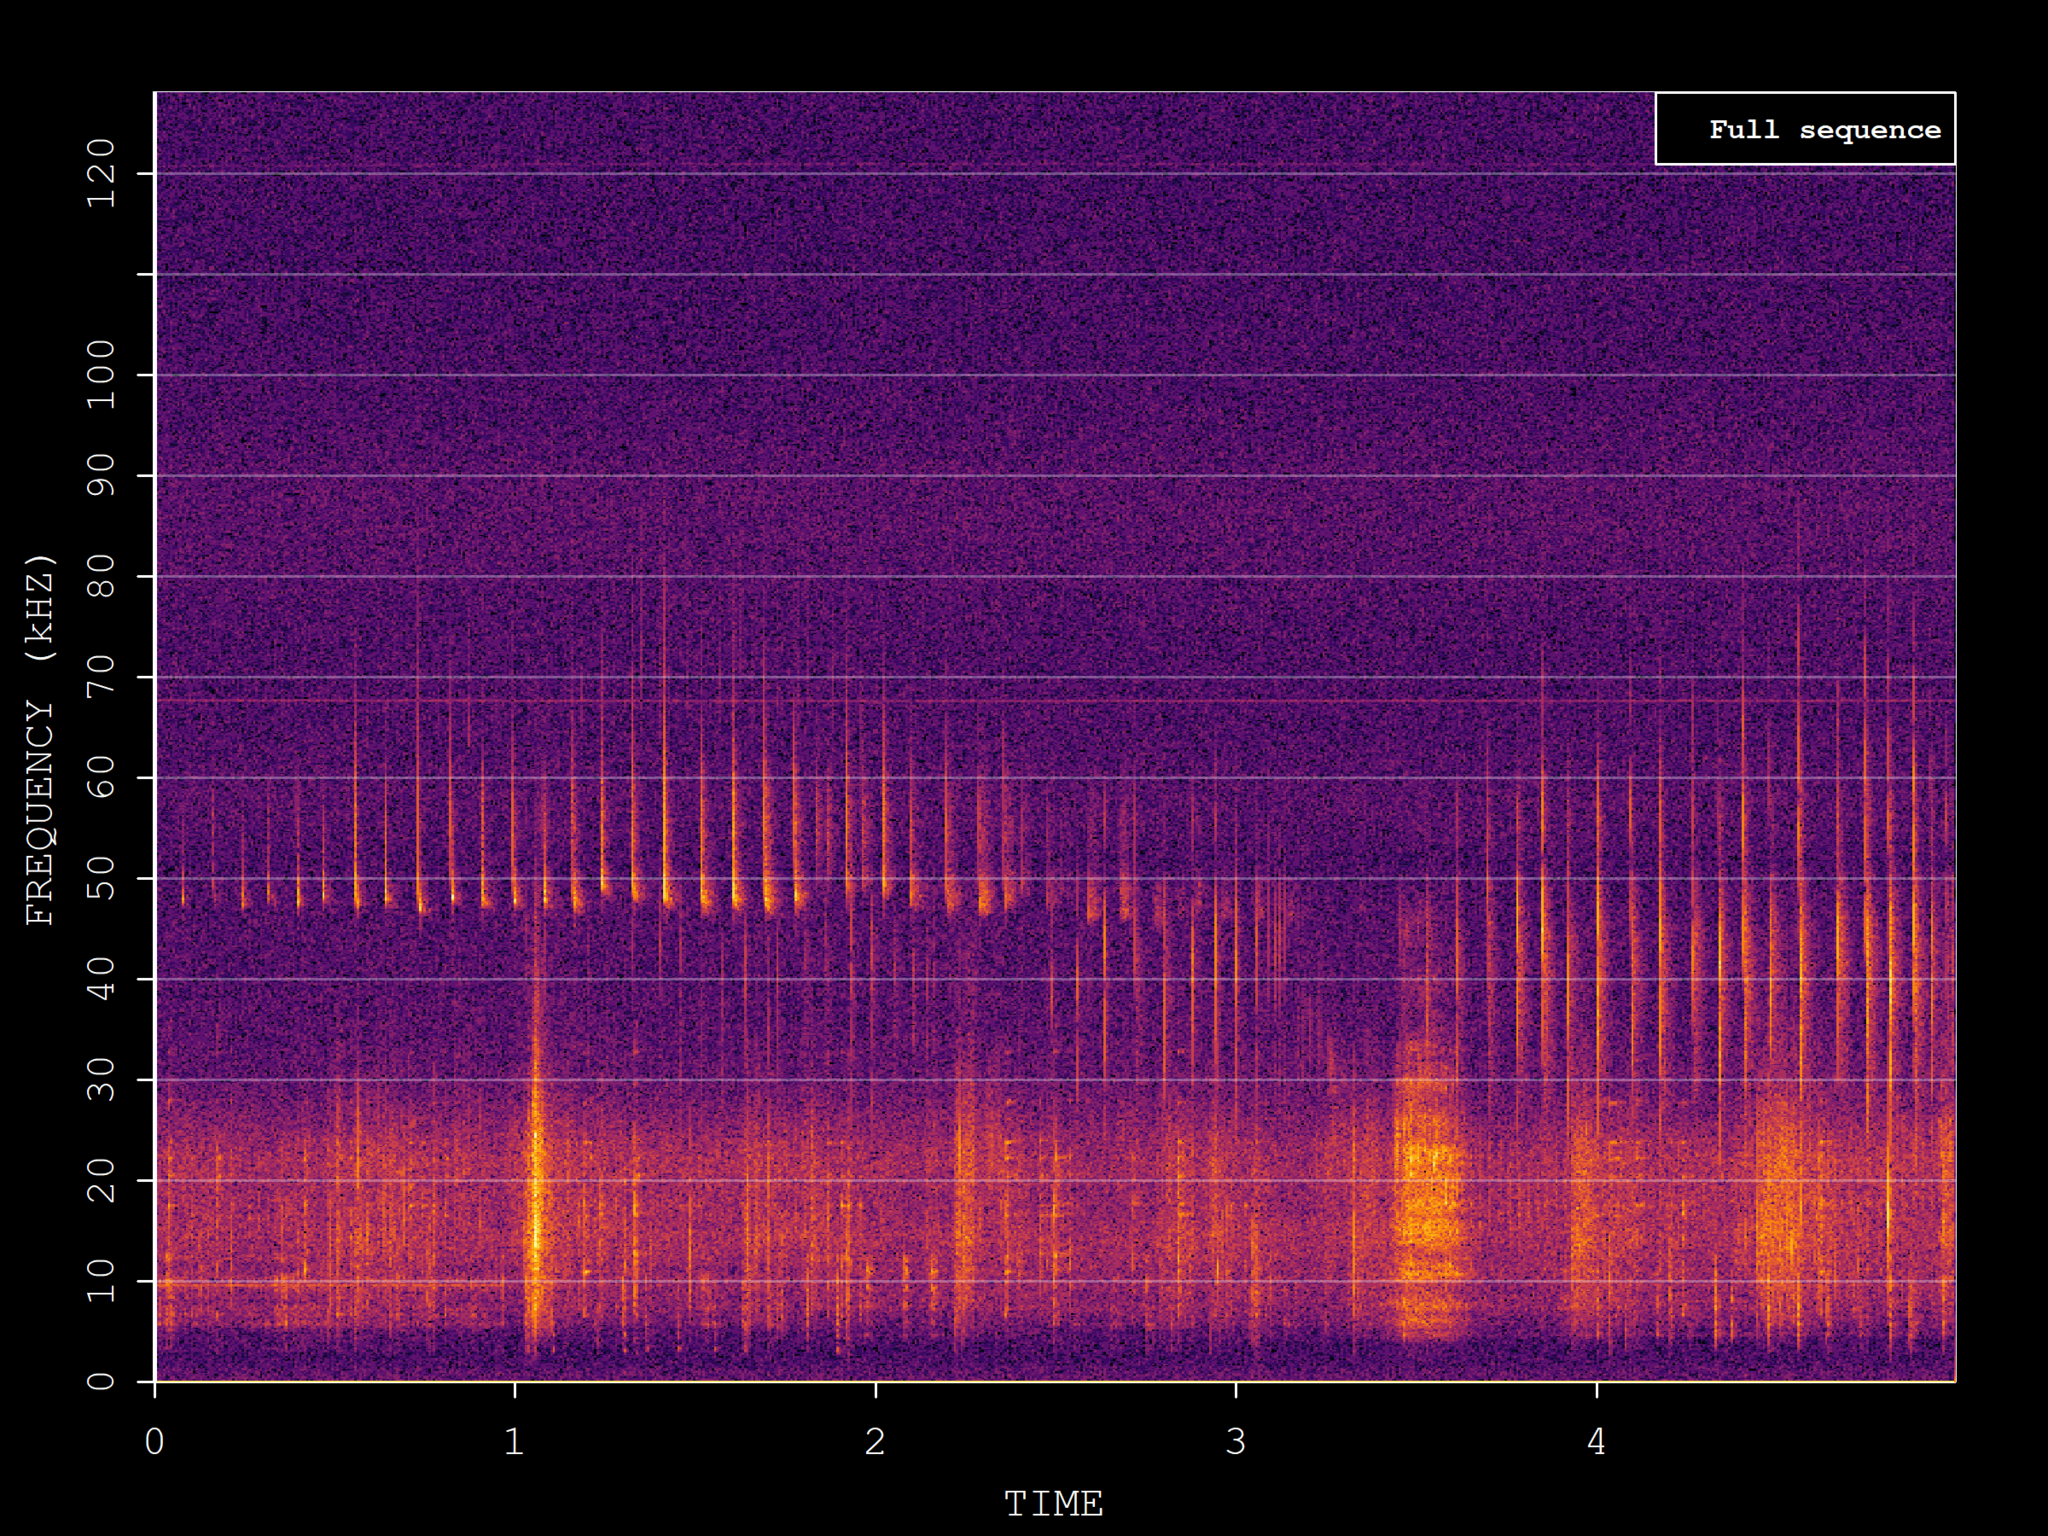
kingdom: Animalia
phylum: Chordata
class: Mammalia
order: Chiroptera
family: Vespertilionidae
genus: Pipistrellus
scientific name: Pipistrellus pipistrellus
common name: Common pipistrelle
